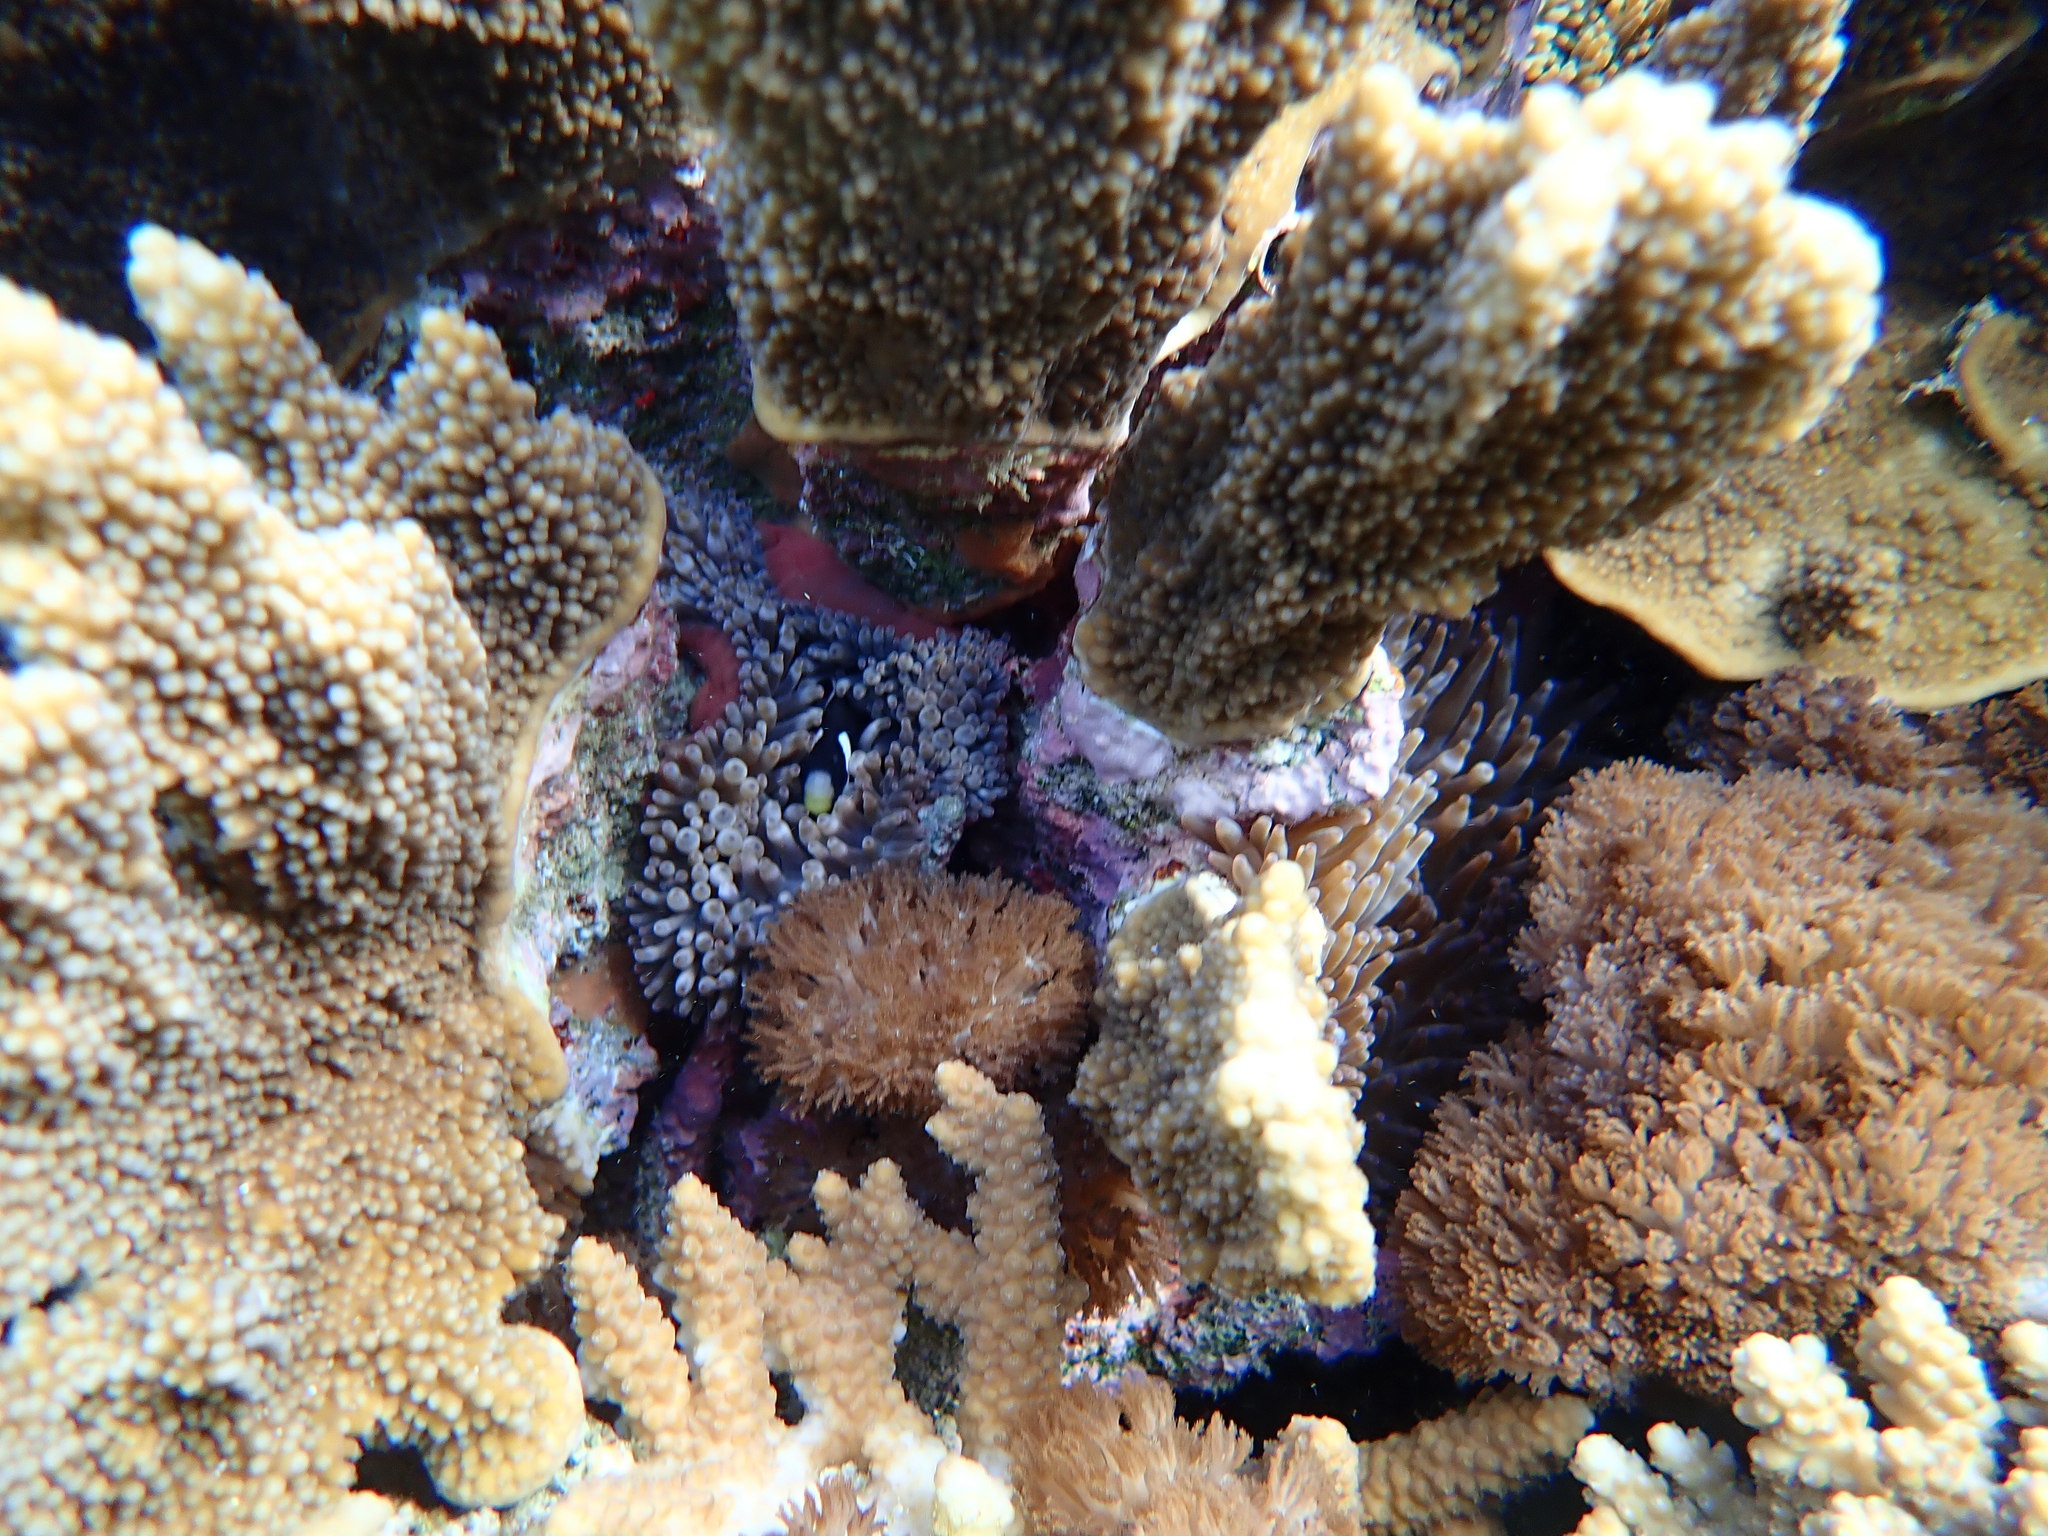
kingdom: Animalia
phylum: Cnidaria
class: Anthozoa
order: Actiniaria
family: Actiniidae
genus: Entacmaea
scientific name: Entacmaea quadricolor
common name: Bulb tentacle sea anemone
